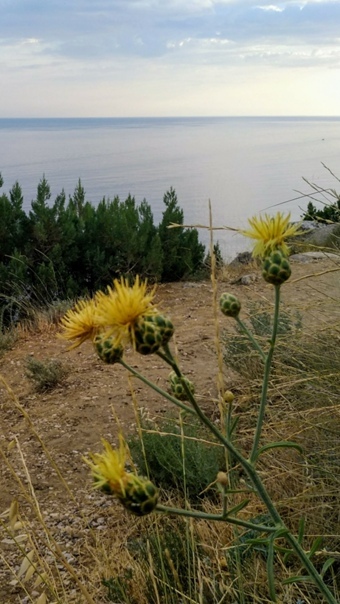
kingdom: Plantae
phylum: Tracheophyta
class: Magnoliopsida
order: Asterales
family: Asteraceae
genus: Centaurea
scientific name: Centaurea orientalis
